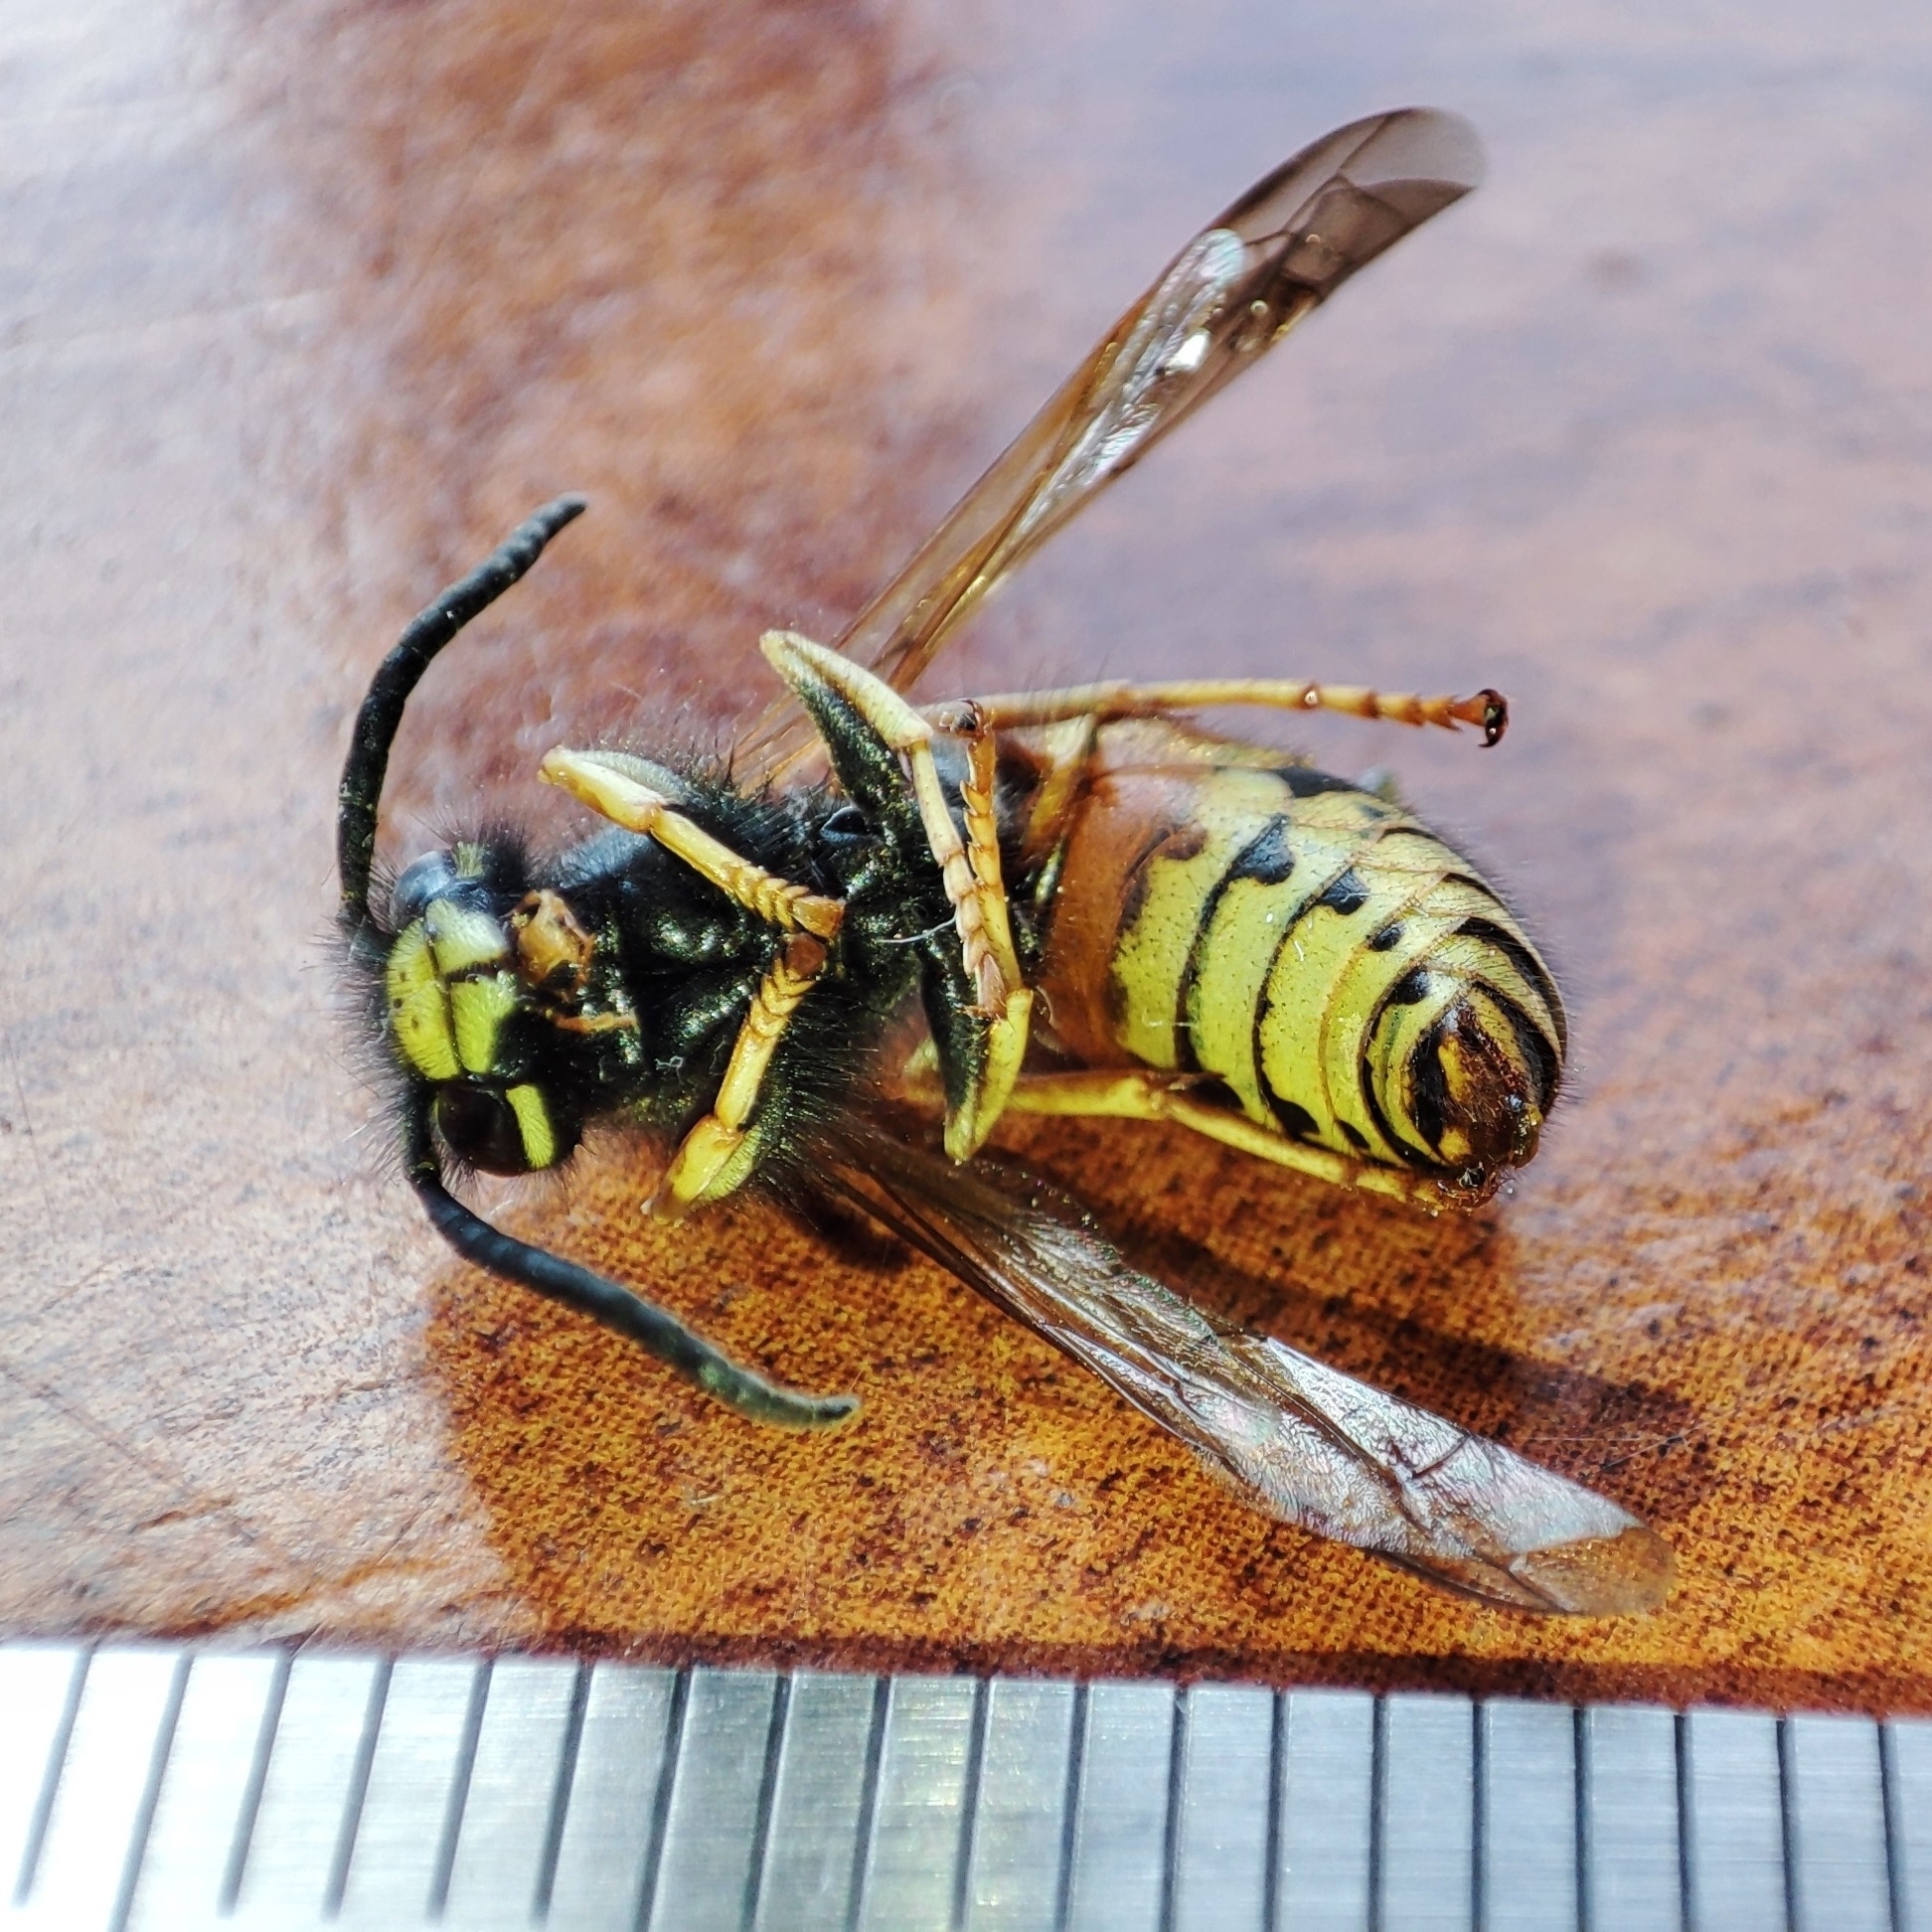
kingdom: Animalia
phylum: Arthropoda
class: Insecta
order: Hymenoptera
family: Vespidae
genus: Vespula
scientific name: Vespula rufa
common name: Red wasp
